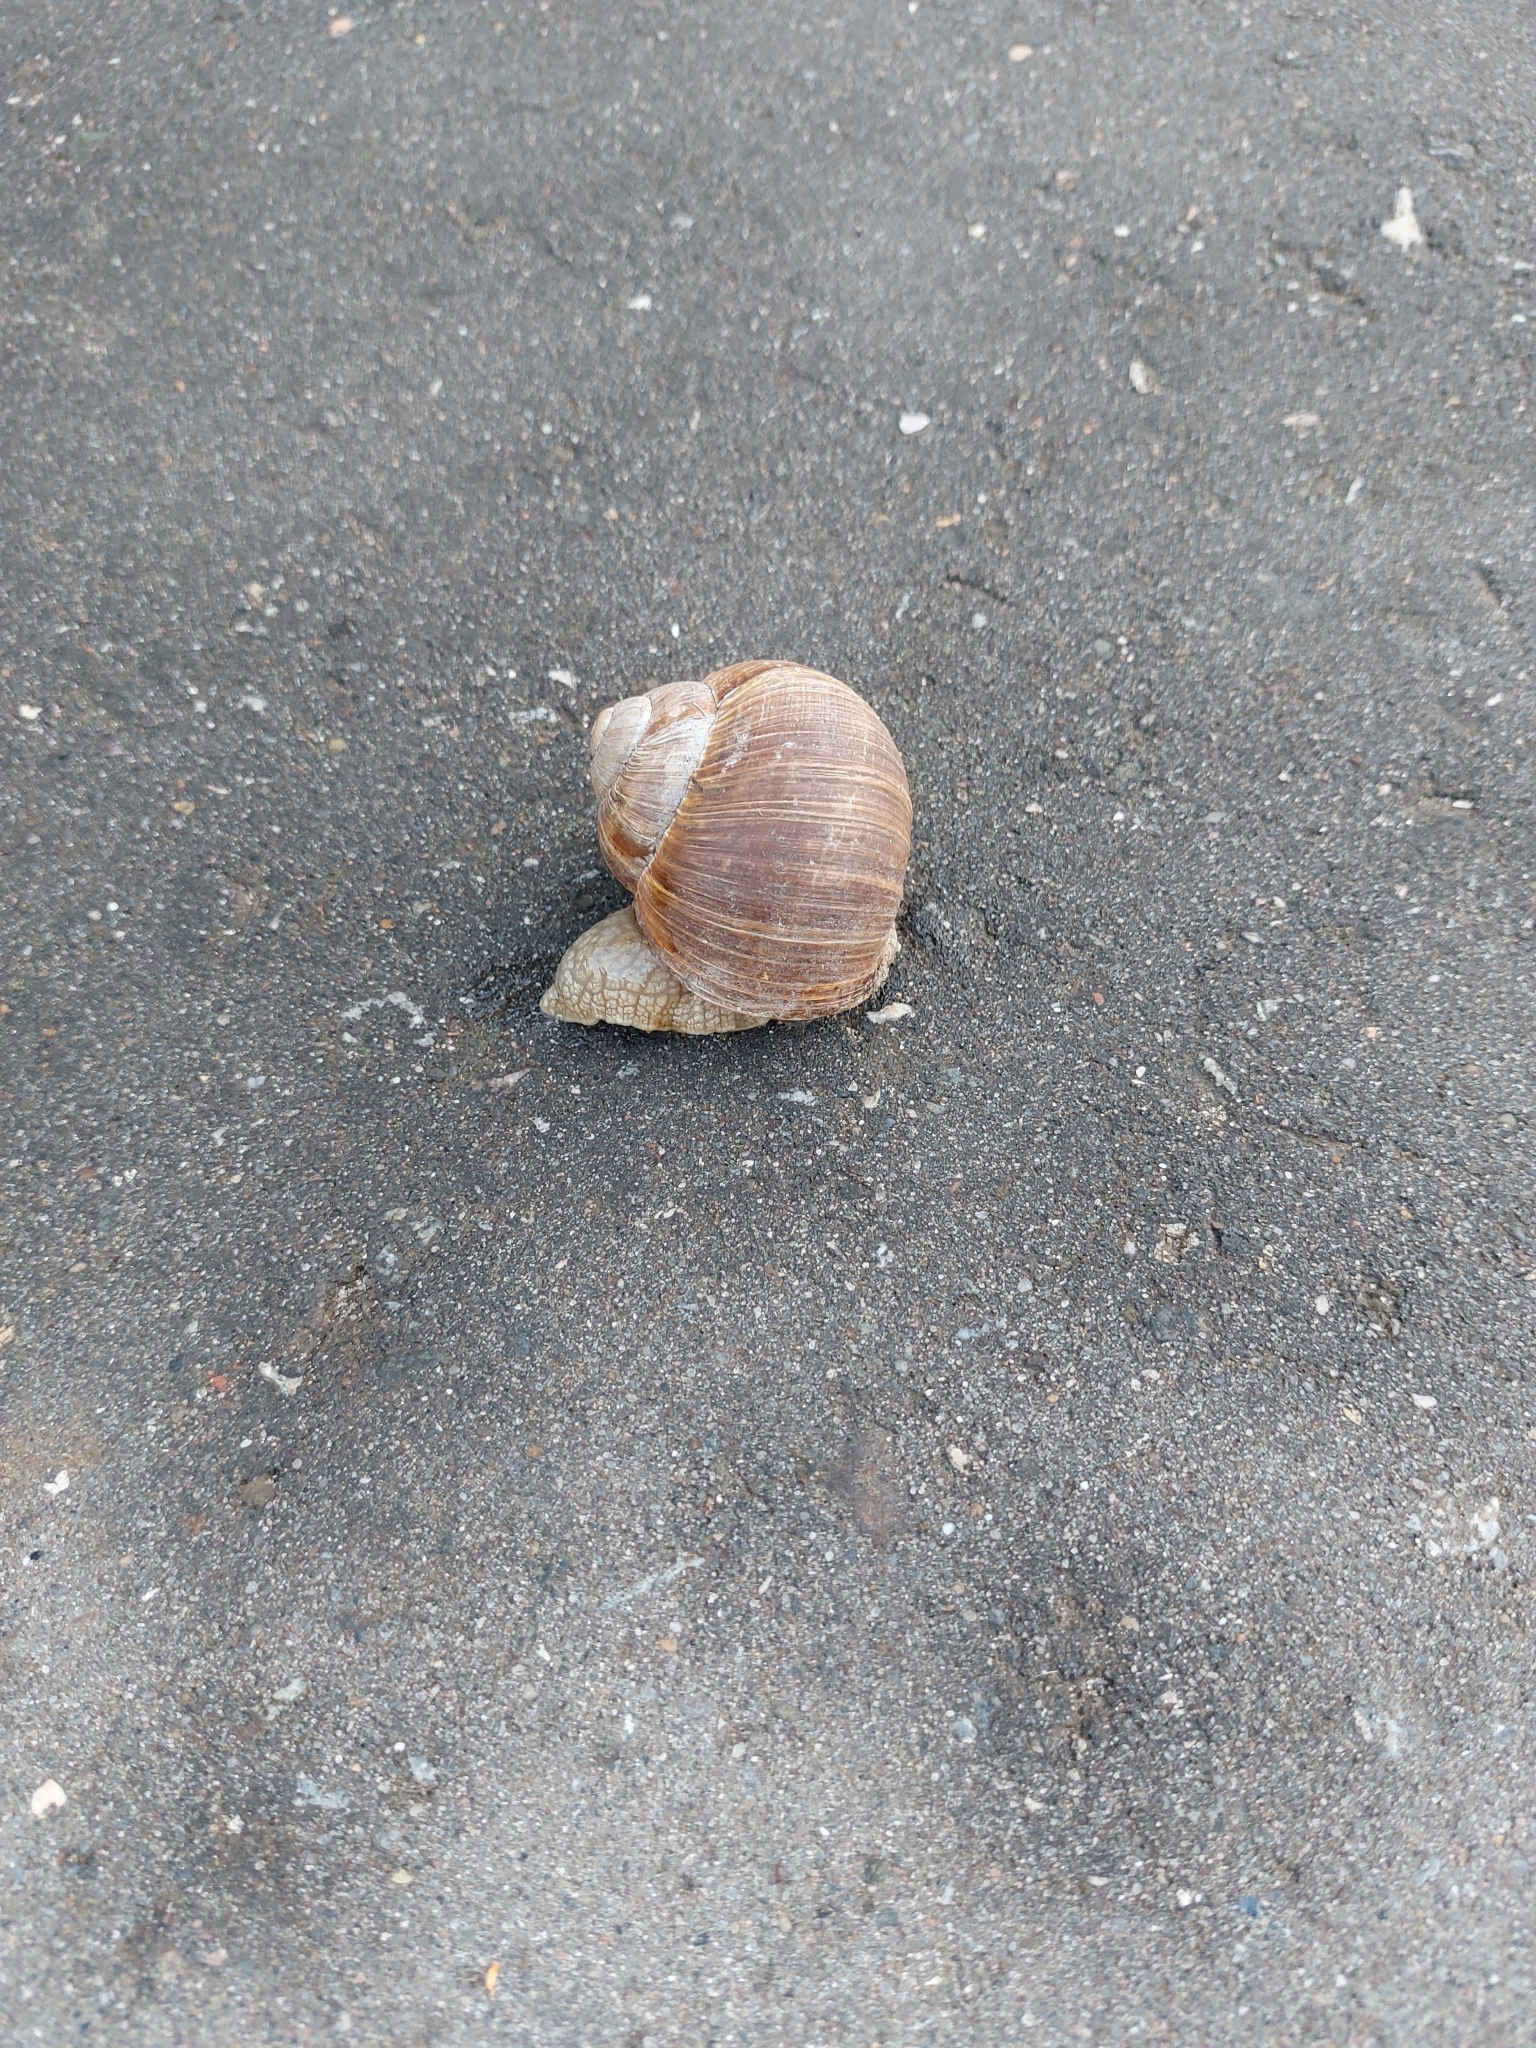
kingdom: Animalia
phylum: Mollusca
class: Gastropoda
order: Stylommatophora
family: Helicidae
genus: Helix
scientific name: Helix pomatia
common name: Roman snail
